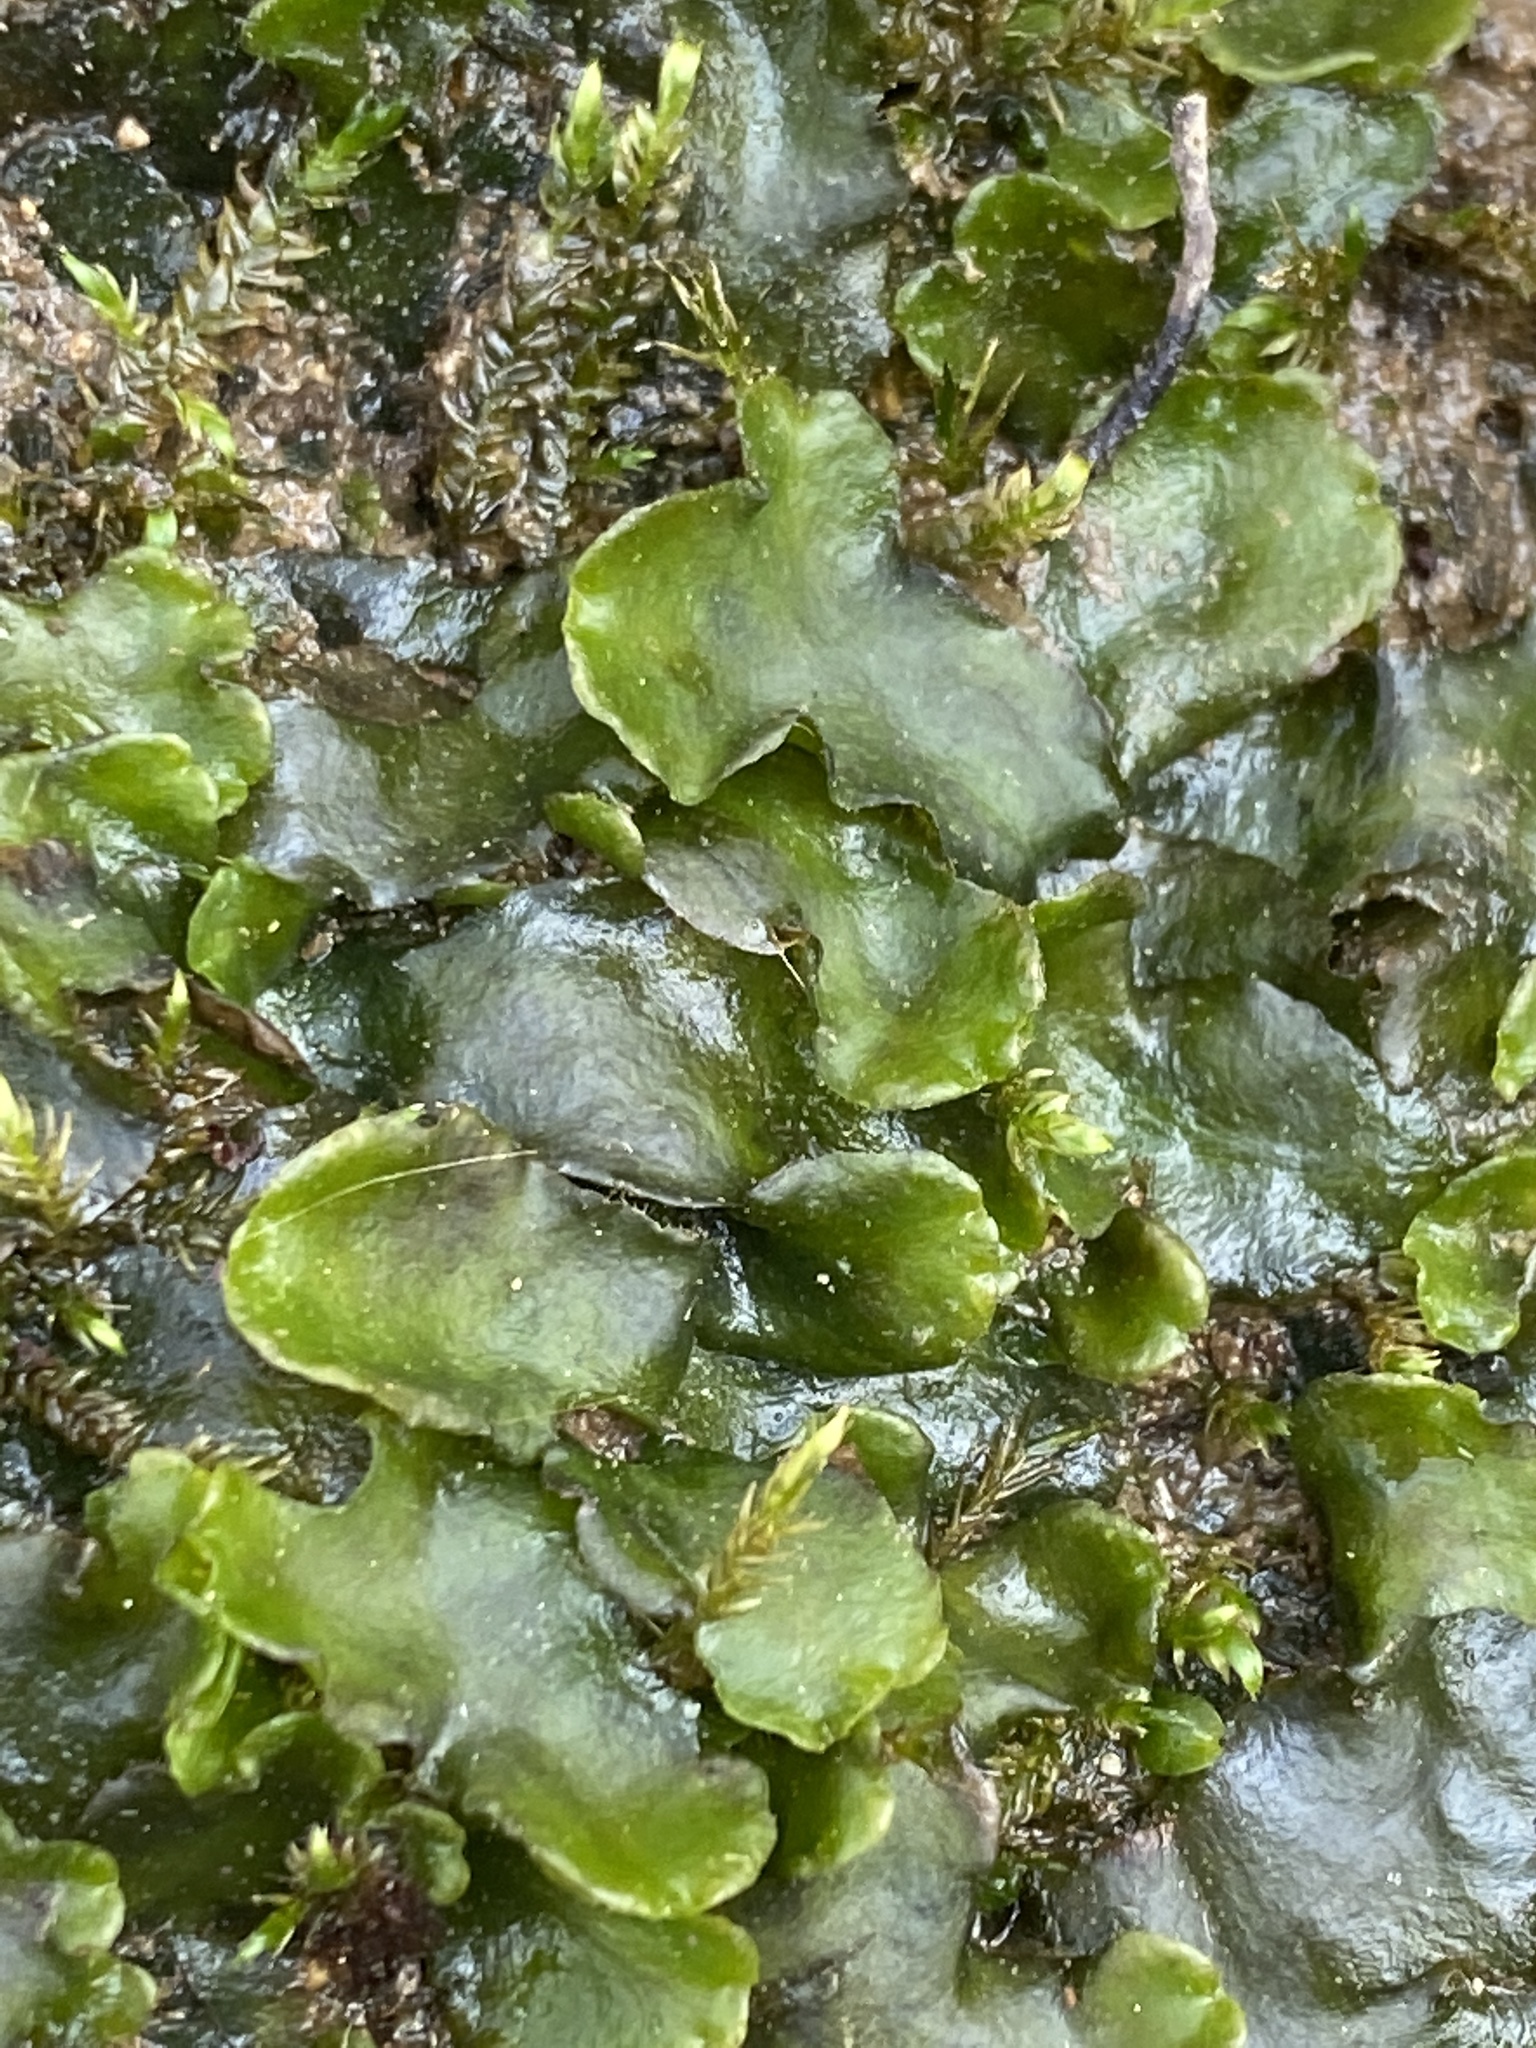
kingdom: Plantae
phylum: Marchantiophyta
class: Marchantiopsida
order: Marchantiales
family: Dumortieraceae
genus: Dumortiera
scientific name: Dumortiera hirsuta
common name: Dumortier's liverwort
